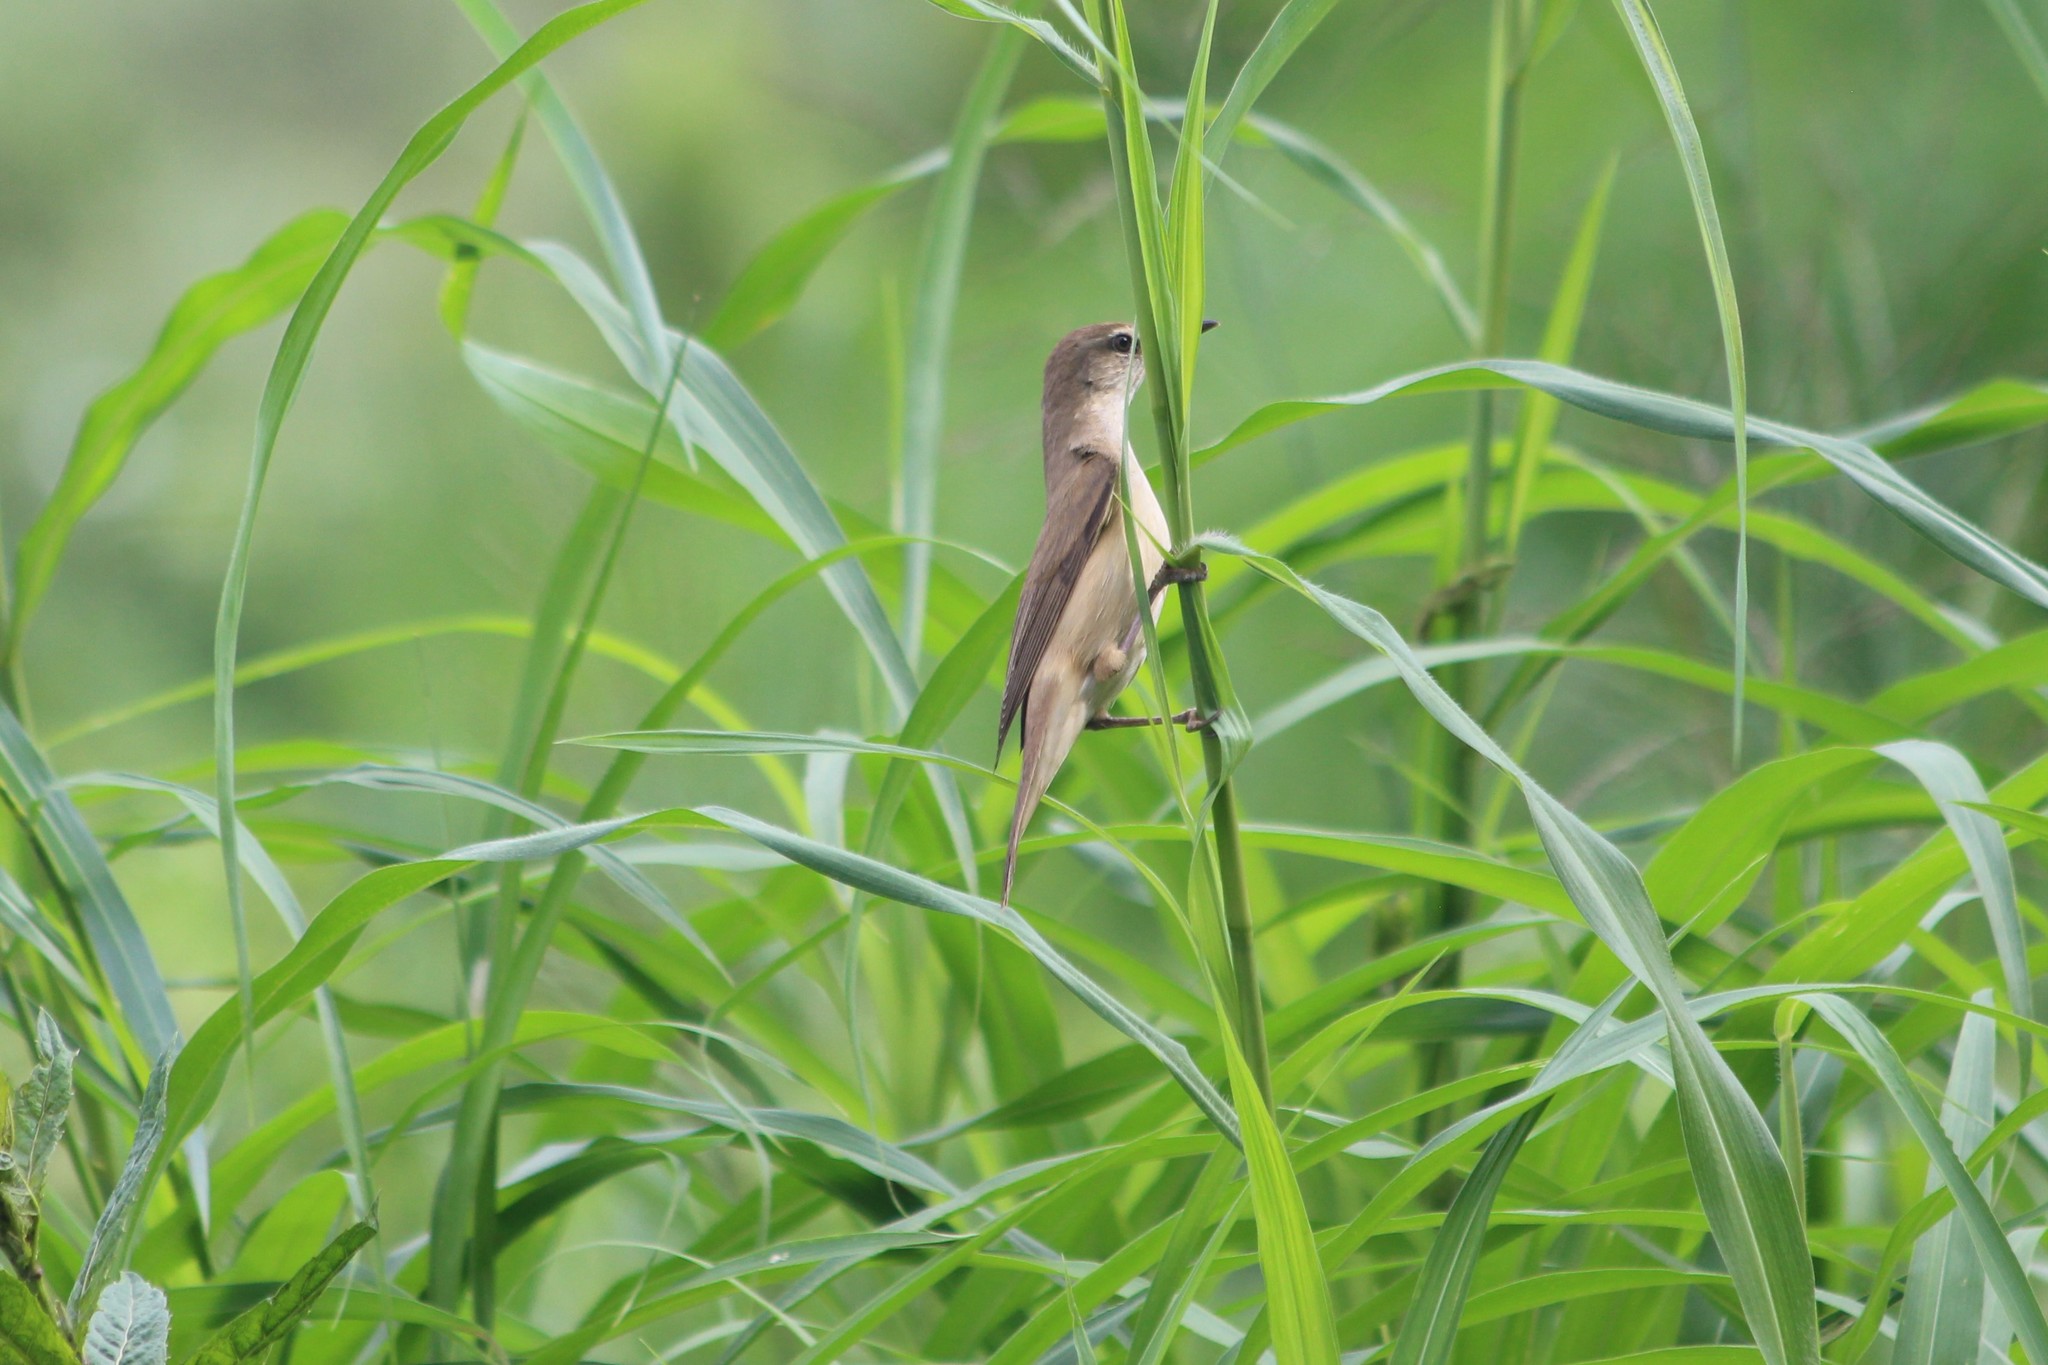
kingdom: Animalia
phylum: Chordata
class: Aves
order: Passeriformes
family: Acrocephalidae
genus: Acrocephalus
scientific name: Acrocephalus arundinaceus
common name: Great reed warbler
